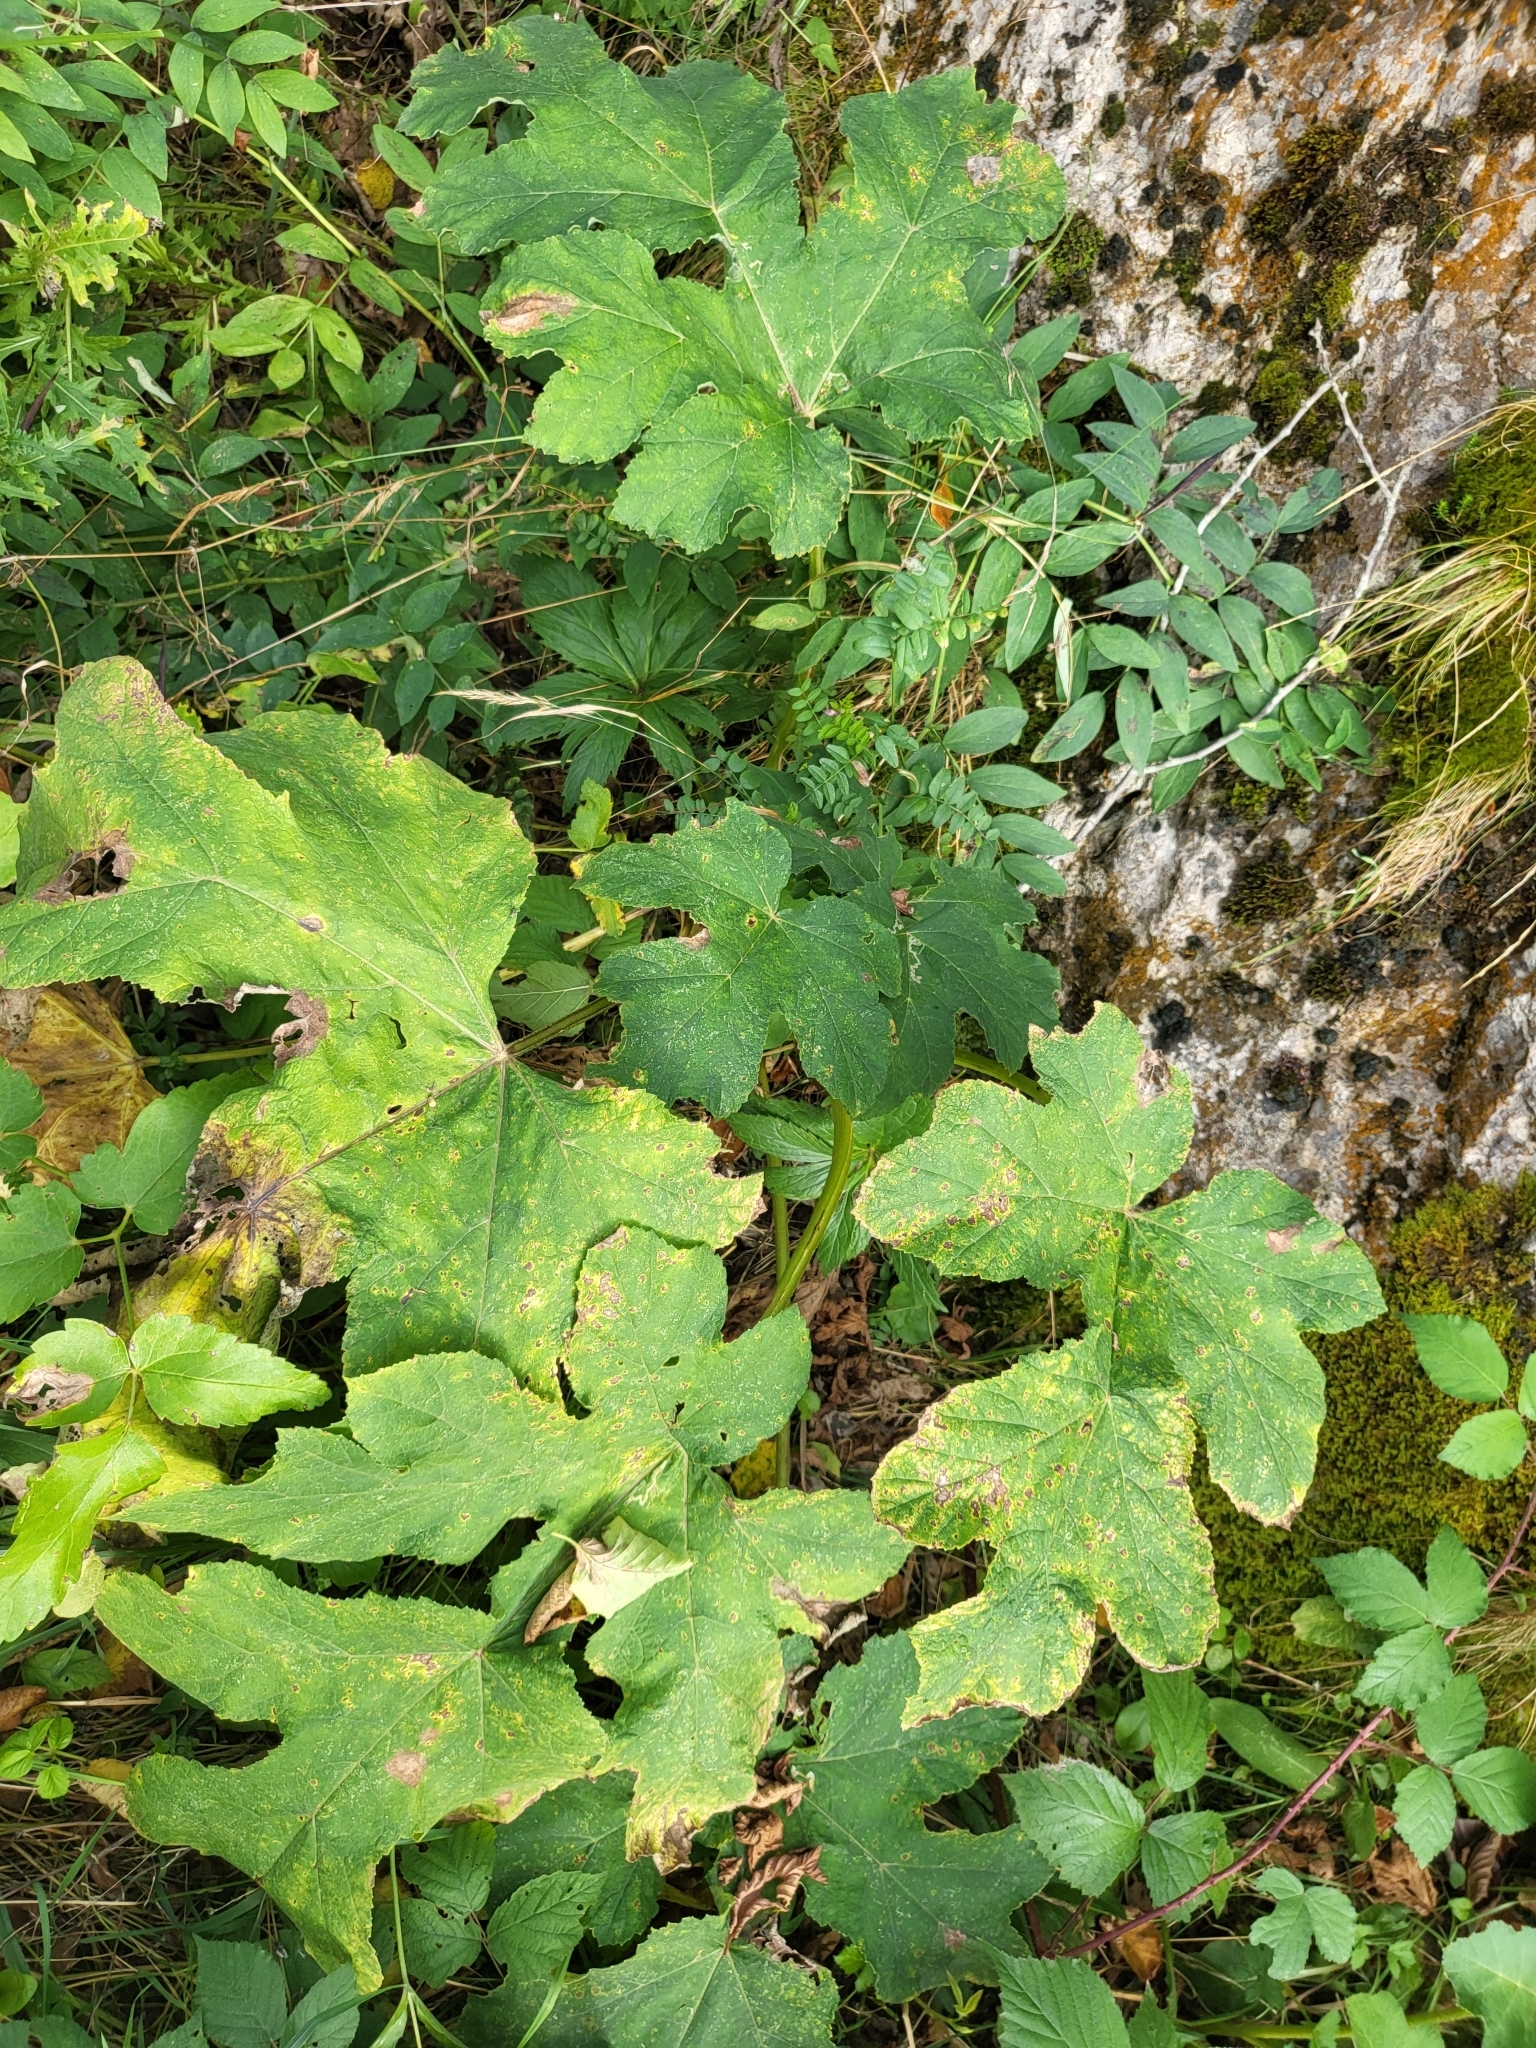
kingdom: Plantae
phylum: Tracheophyta
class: Magnoliopsida
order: Apiales
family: Apiaceae
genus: Heracleum
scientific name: Heracleum sphondylium
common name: Hogweed
